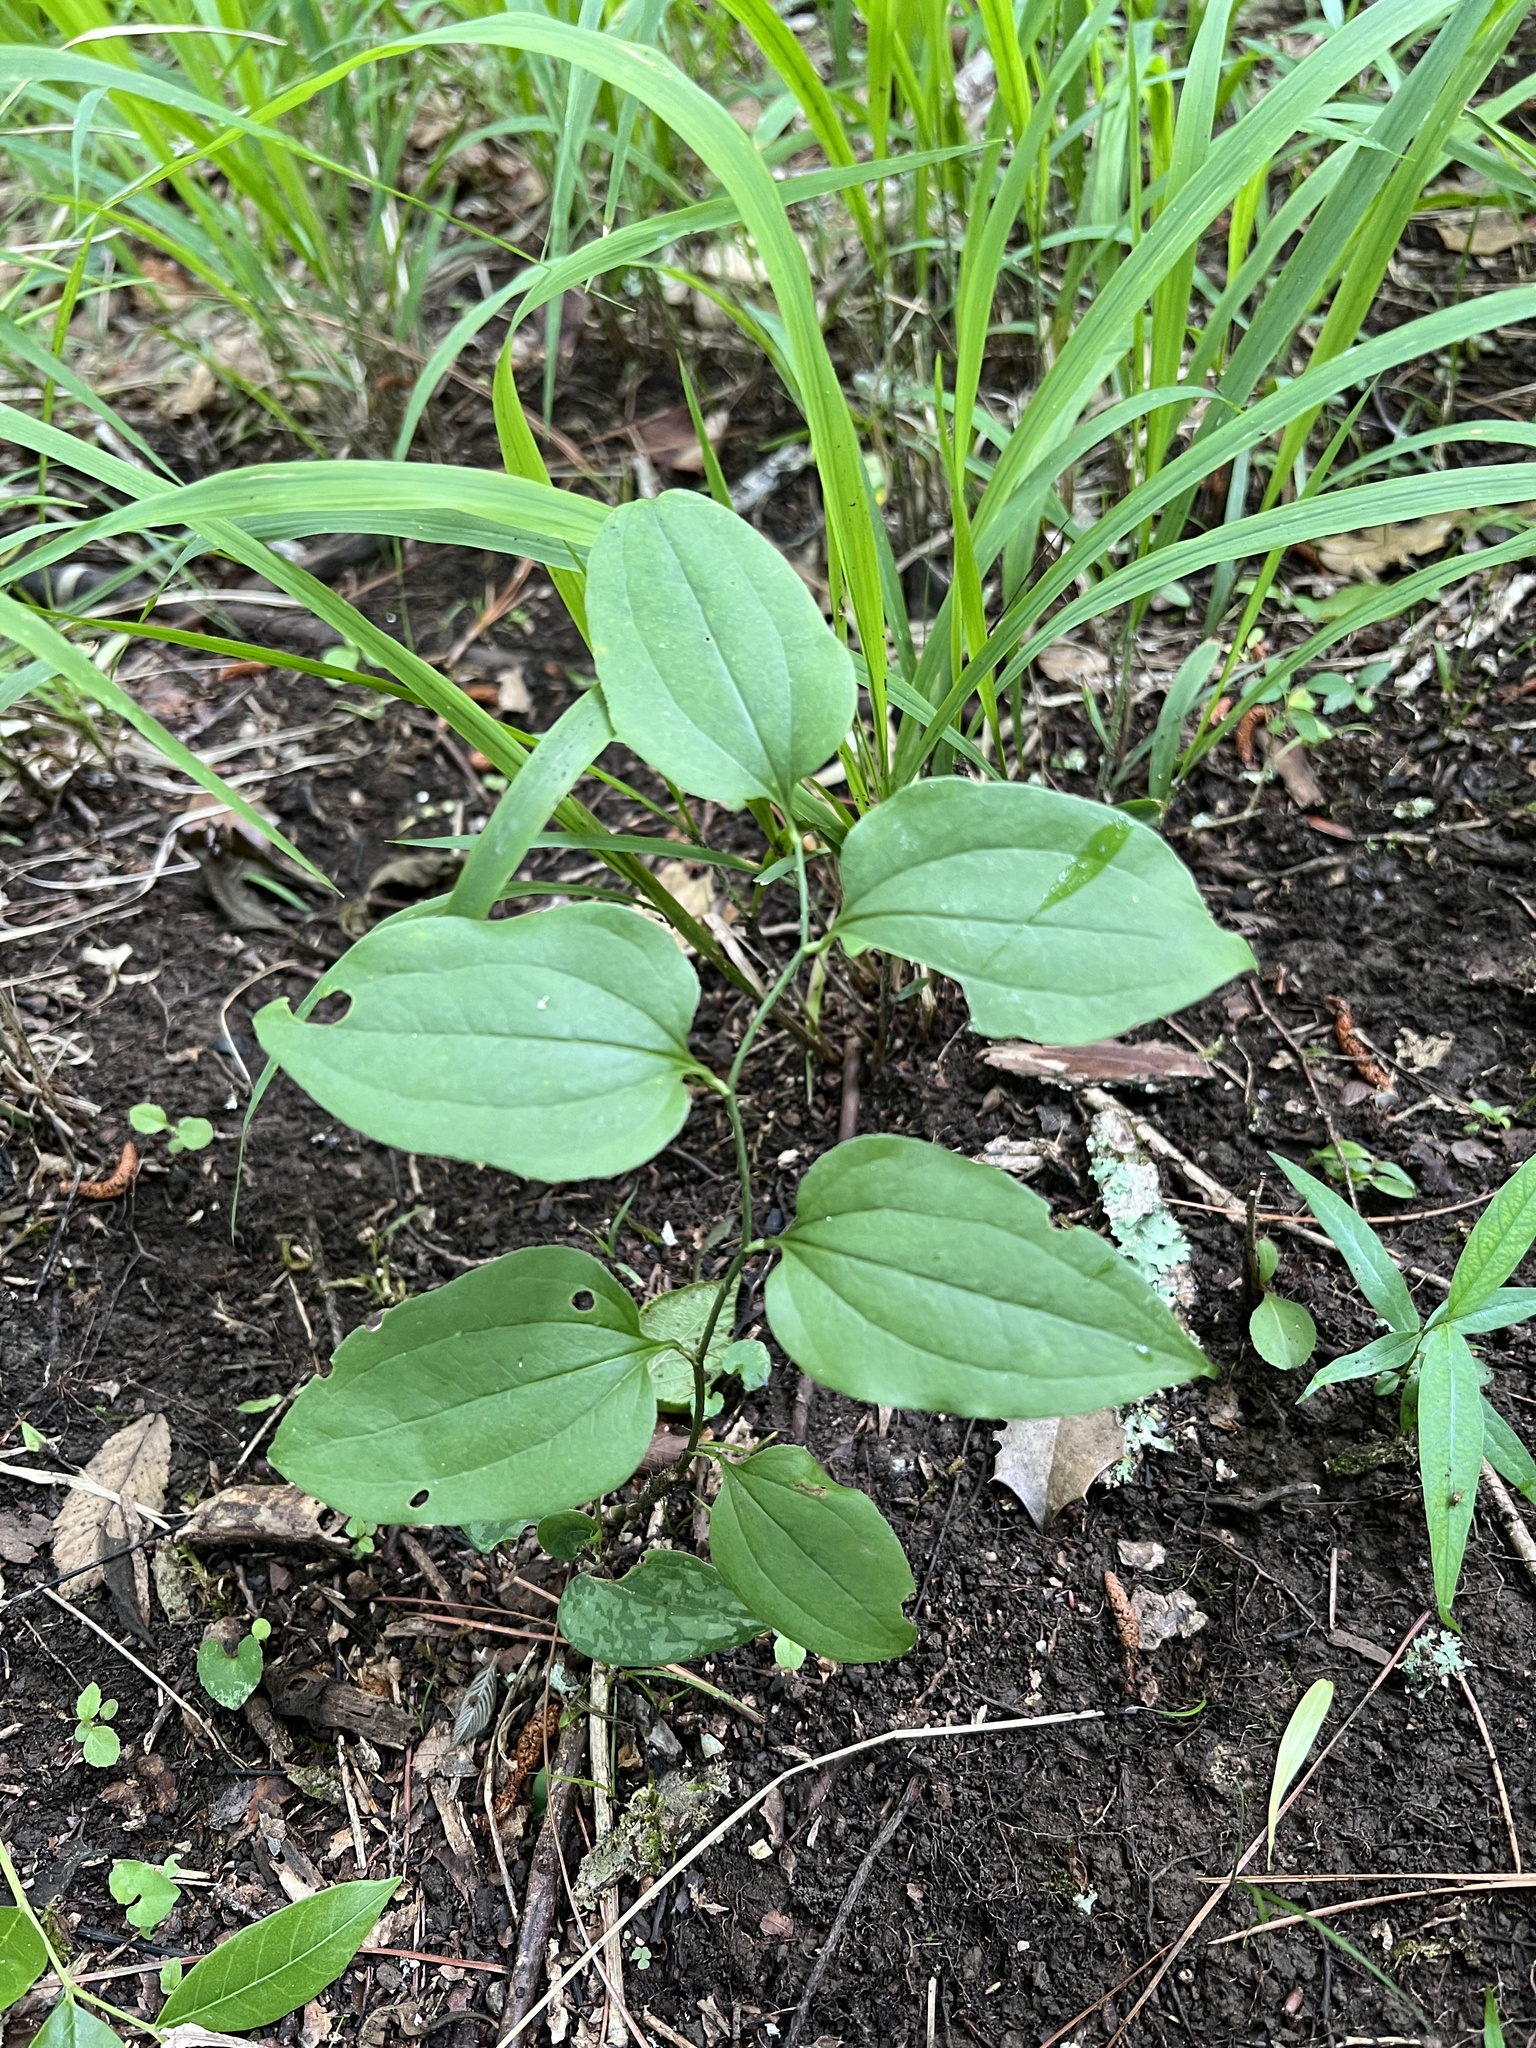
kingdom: Plantae
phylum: Tracheophyta
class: Liliopsida
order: Liliales
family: Smilacaceae
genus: Smilax
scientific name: Smilax tamnoides
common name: Hellfetter
